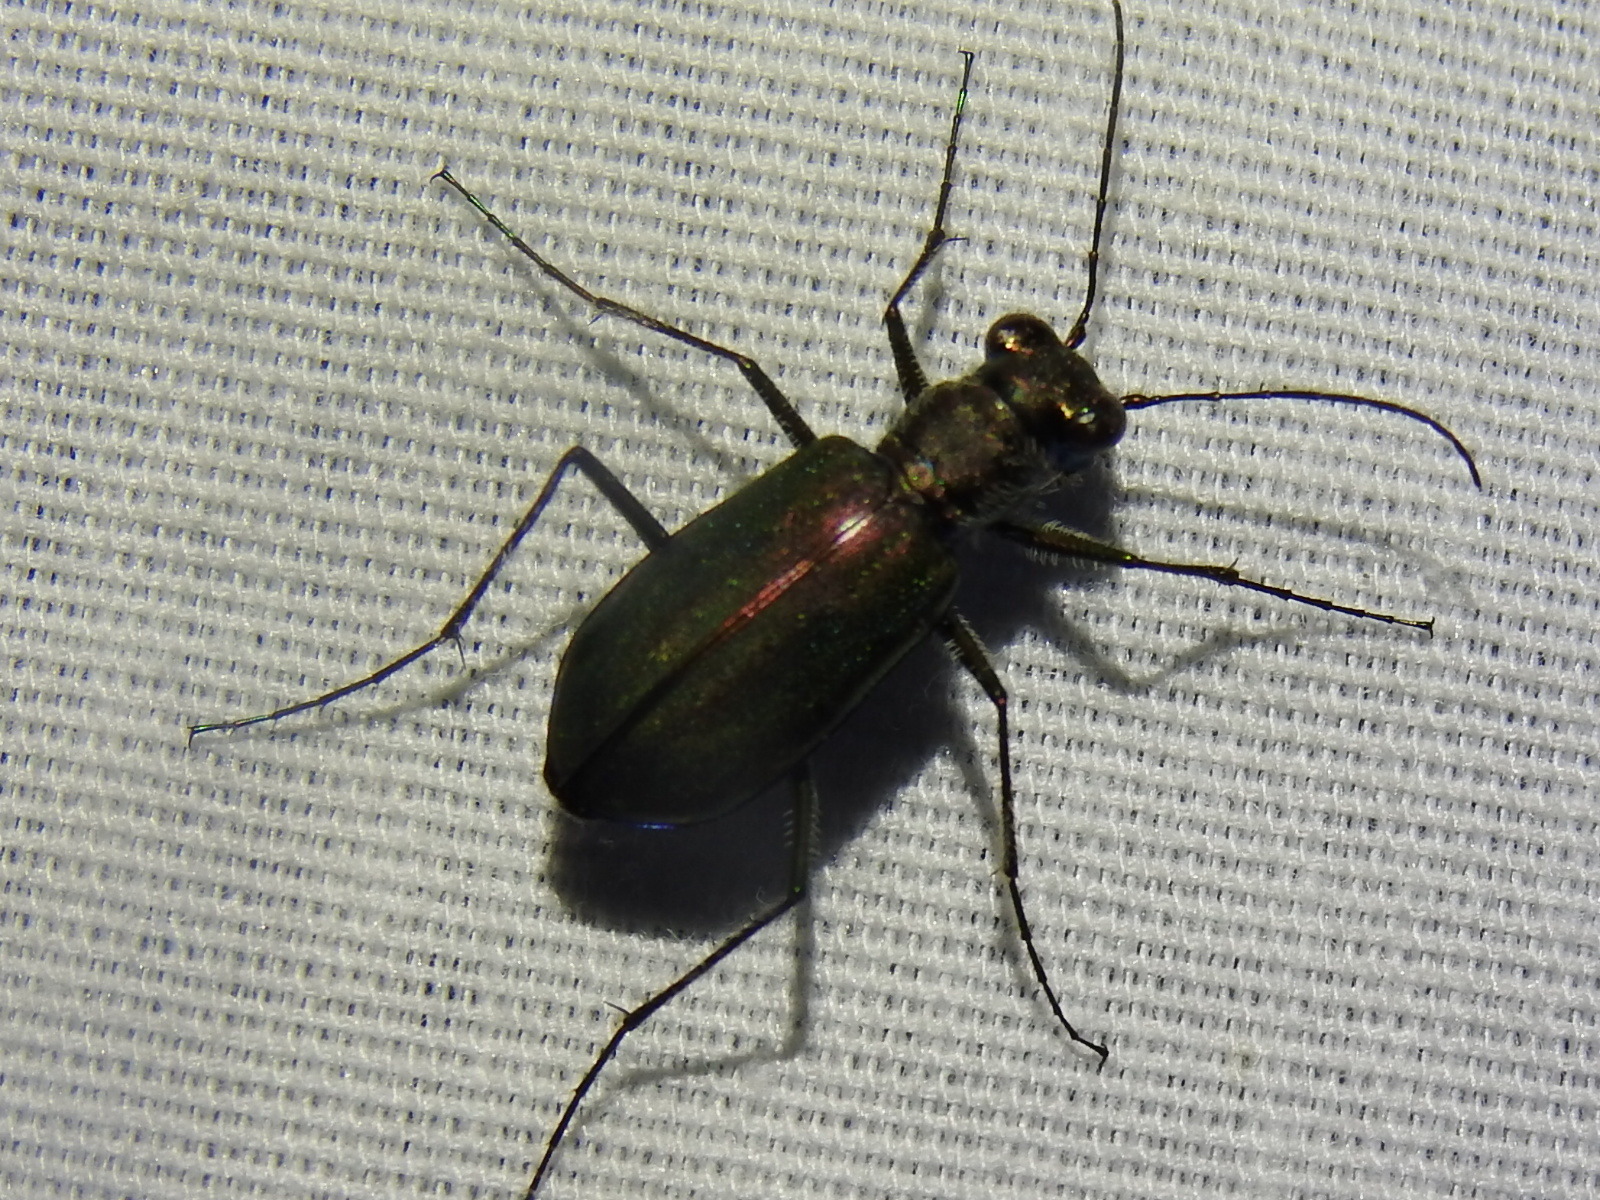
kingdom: Animalia
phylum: Arthropoda
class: Insecta
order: Coleoptera
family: Carabidae
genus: Cicindela
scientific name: Cicindela punctulata
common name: Punctured tiger beetle
